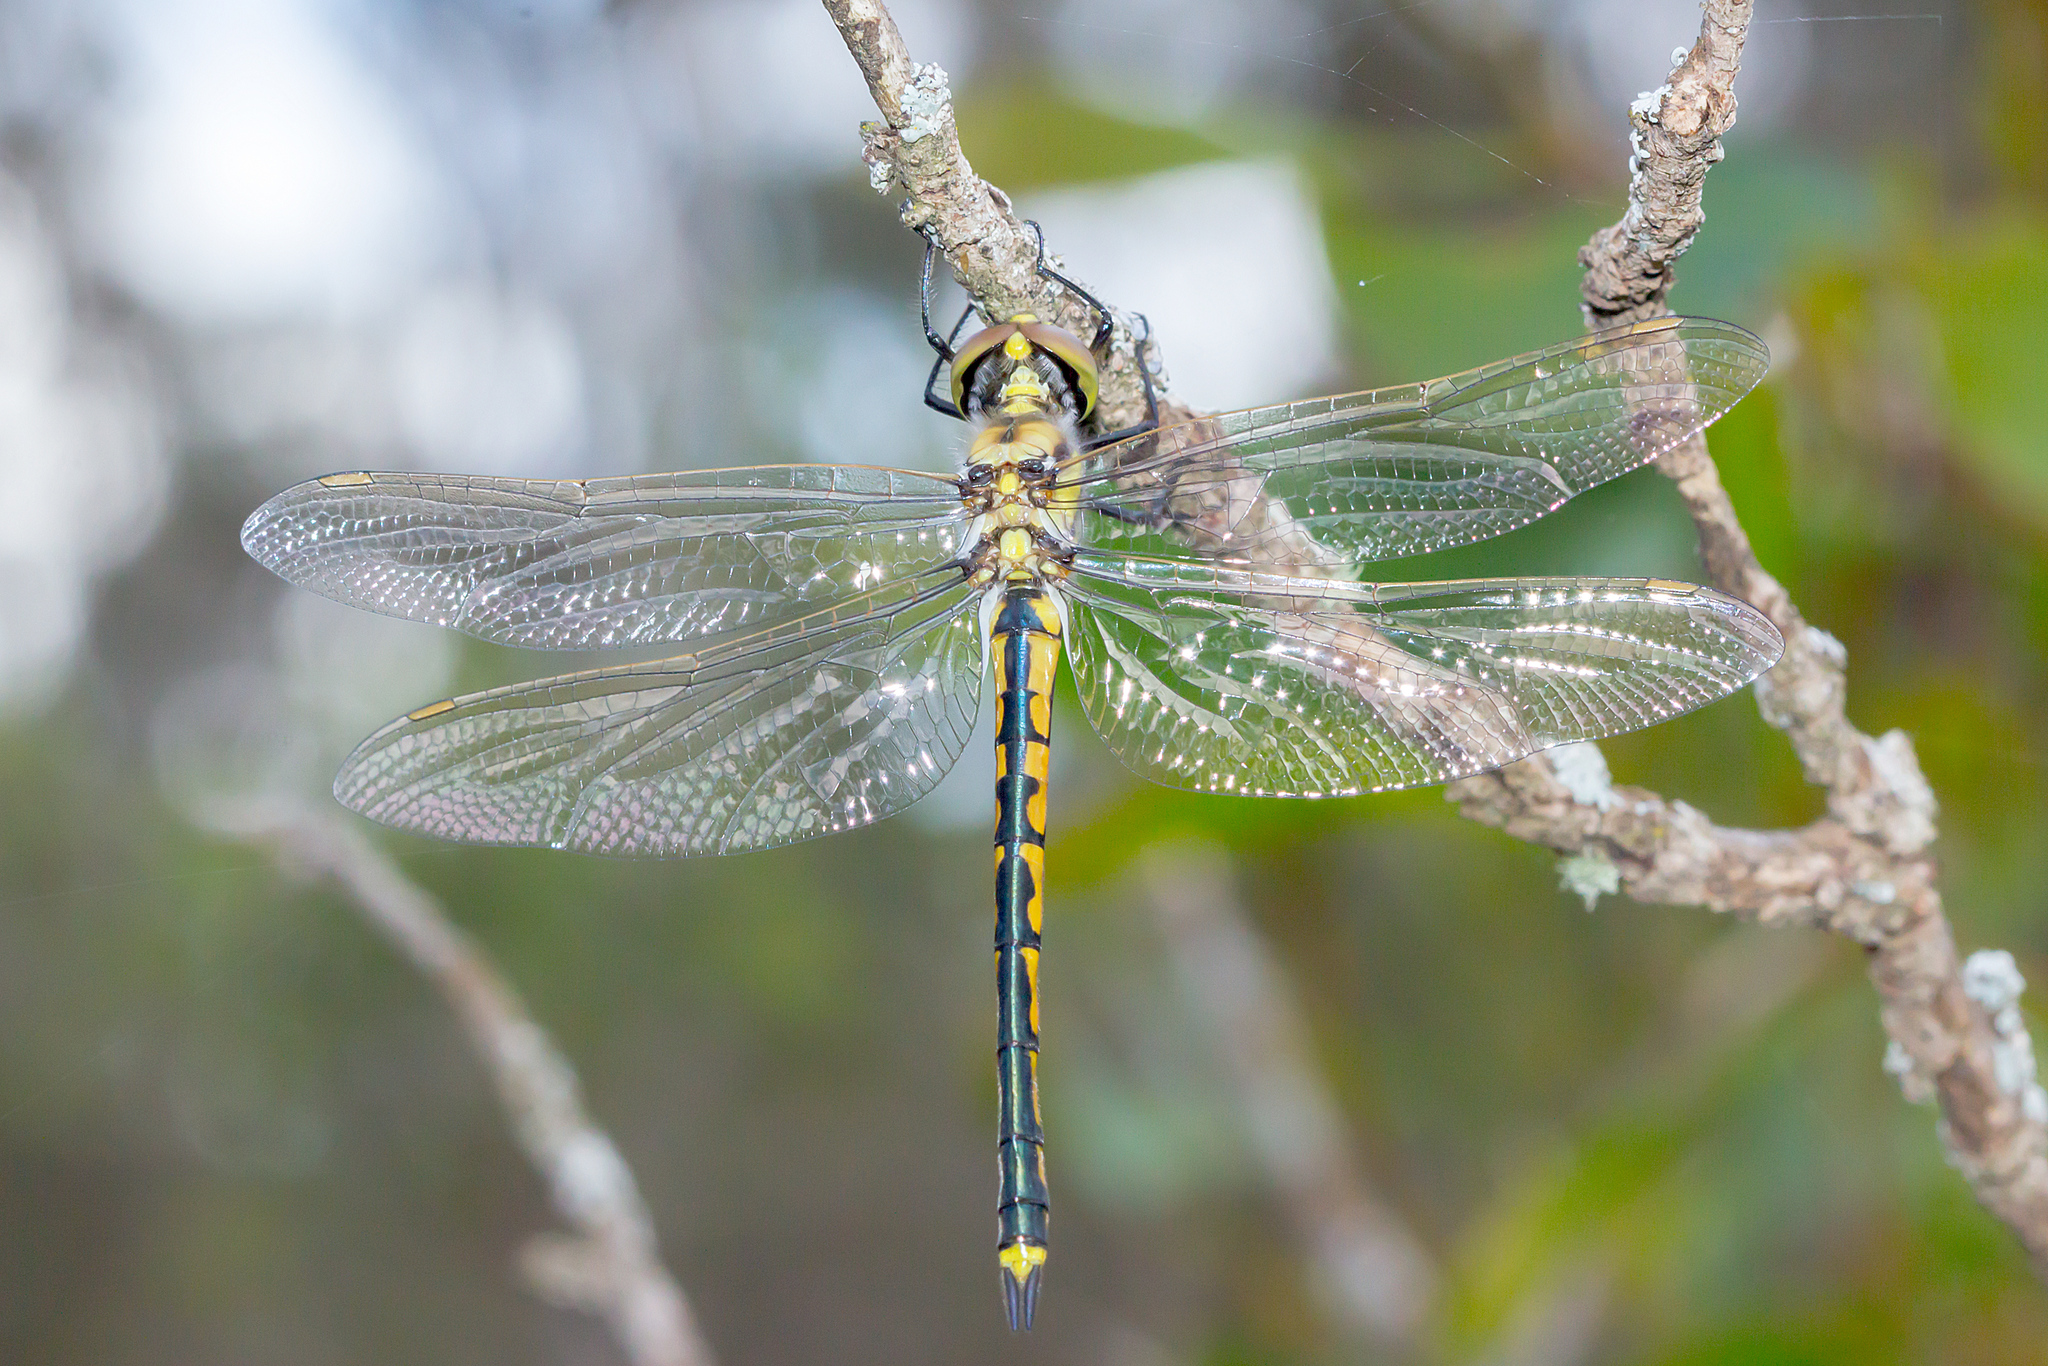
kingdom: Animalia
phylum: Arthropoda
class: Insecta
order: Odonata
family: Corduliidae
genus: Hemicordulia
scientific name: Hemicordulia tau
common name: Tau emerald
